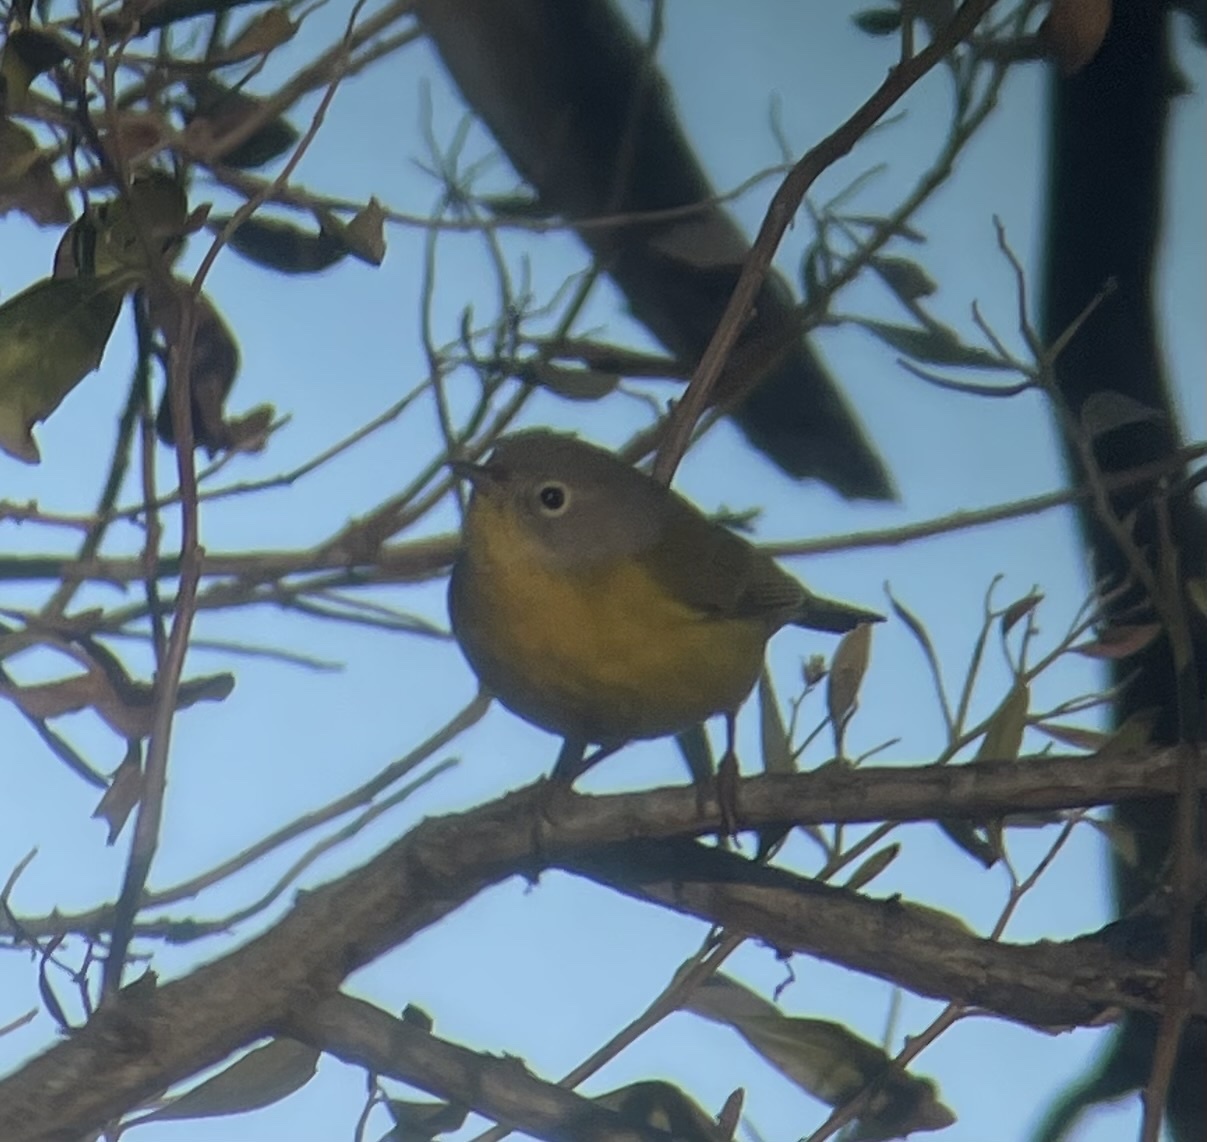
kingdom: Animalia
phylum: Chordata
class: Aves
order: Passeriformes
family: Parulidae
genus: Leiothlypis
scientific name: Leiothlypis ruficapilla
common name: Nashville warbler
